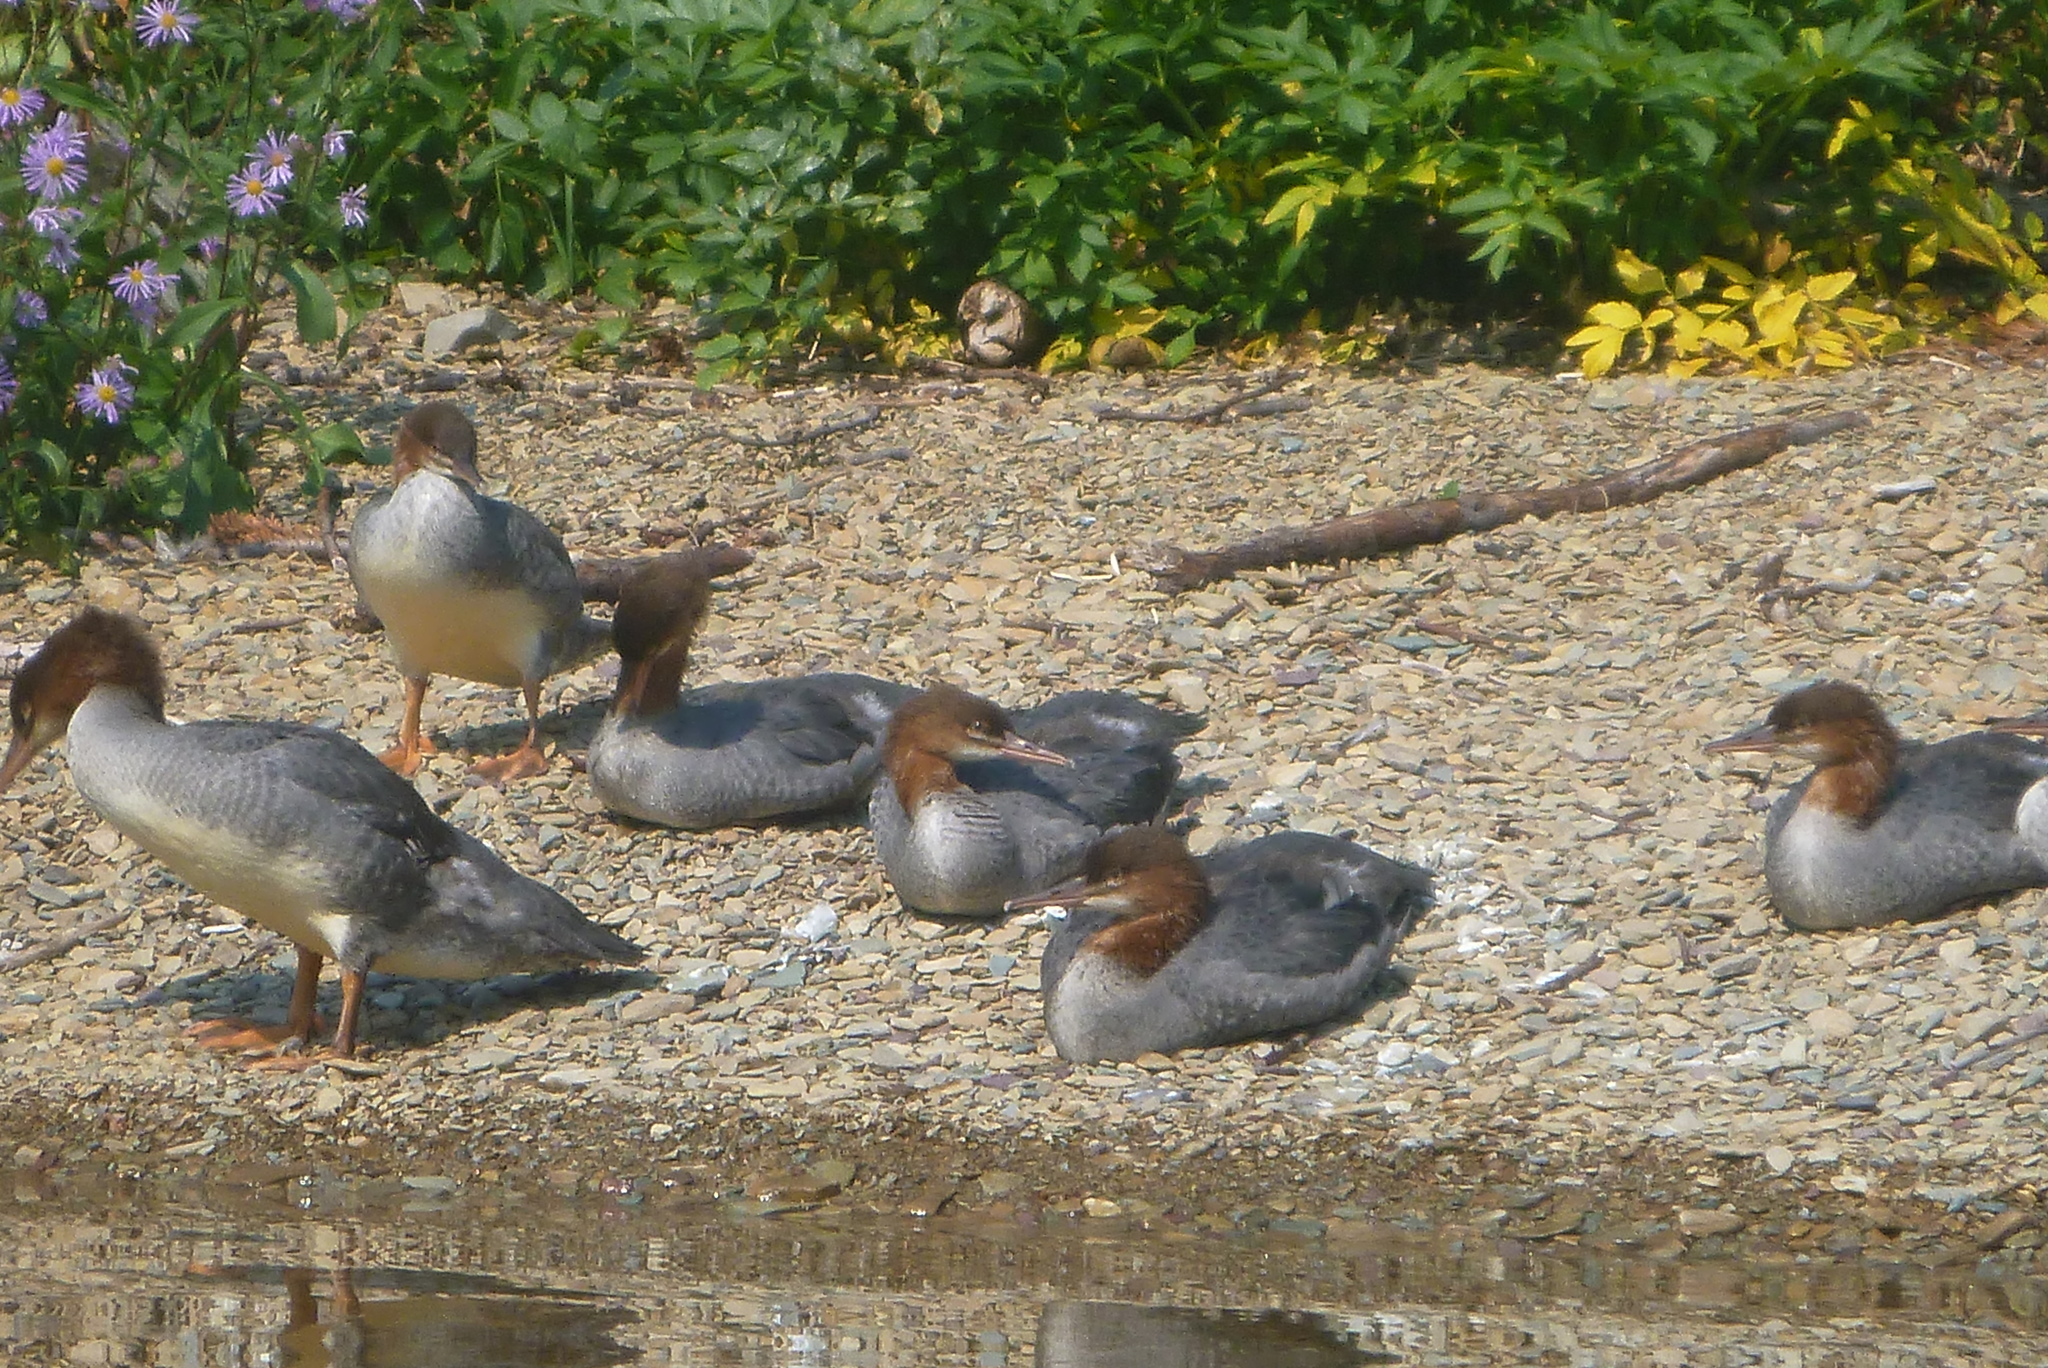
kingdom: Animalia
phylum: Chordata
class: Aves
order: Anseriformes
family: Anatidae
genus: Mergus
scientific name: Mergus merganser
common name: Common merganser
